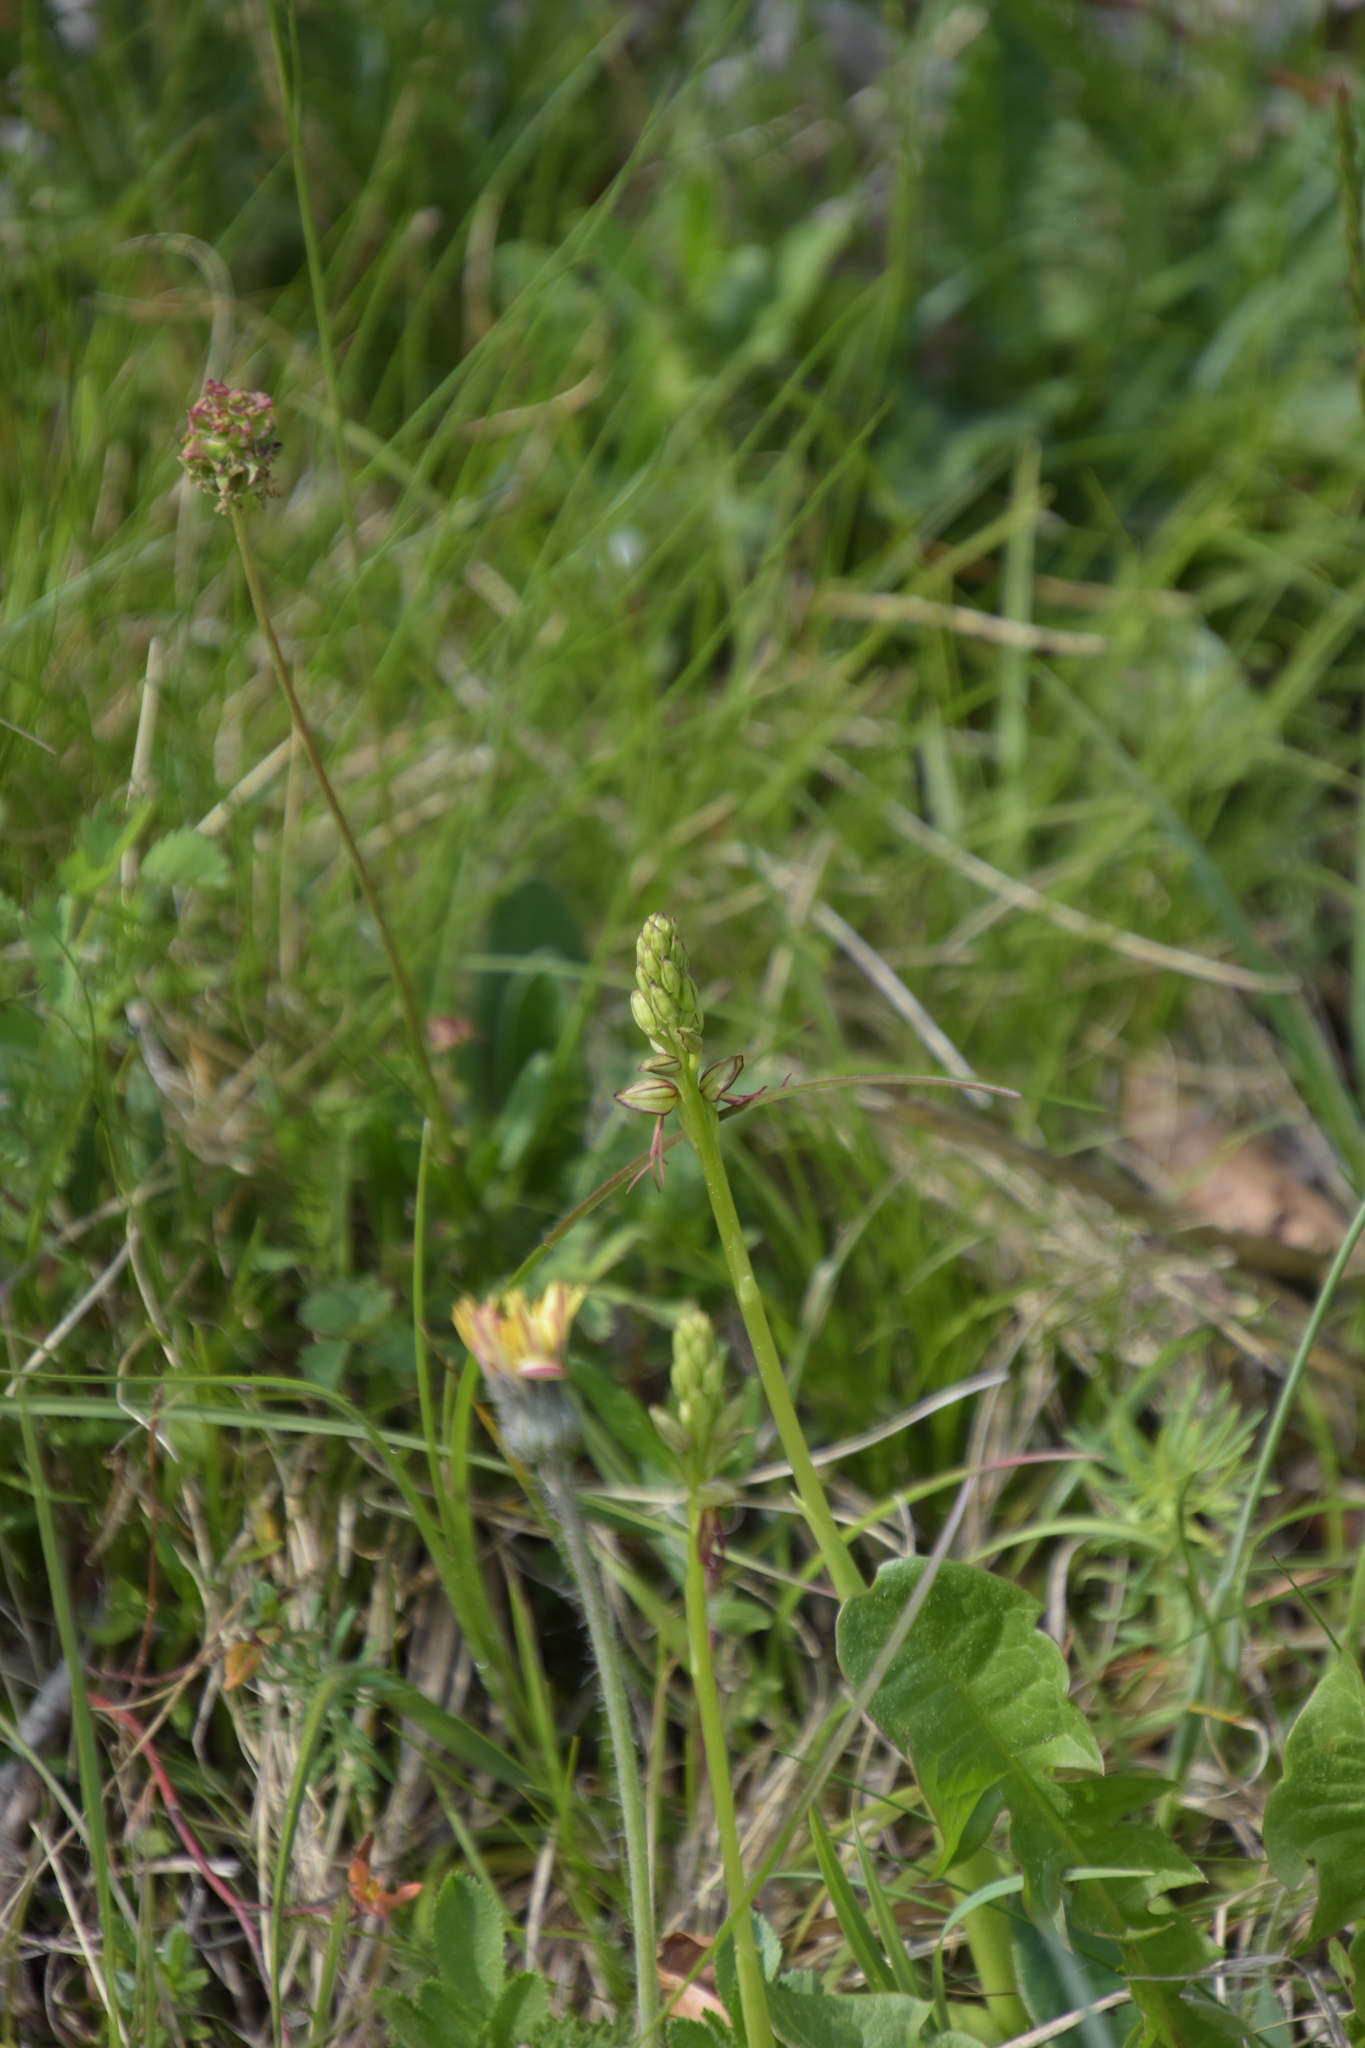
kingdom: Plantae
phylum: Tracheophyta
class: Liliopsida
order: Asparagales
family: Orchidaceae
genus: Orchis
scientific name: Orchis anthropophora
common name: Man orchid
